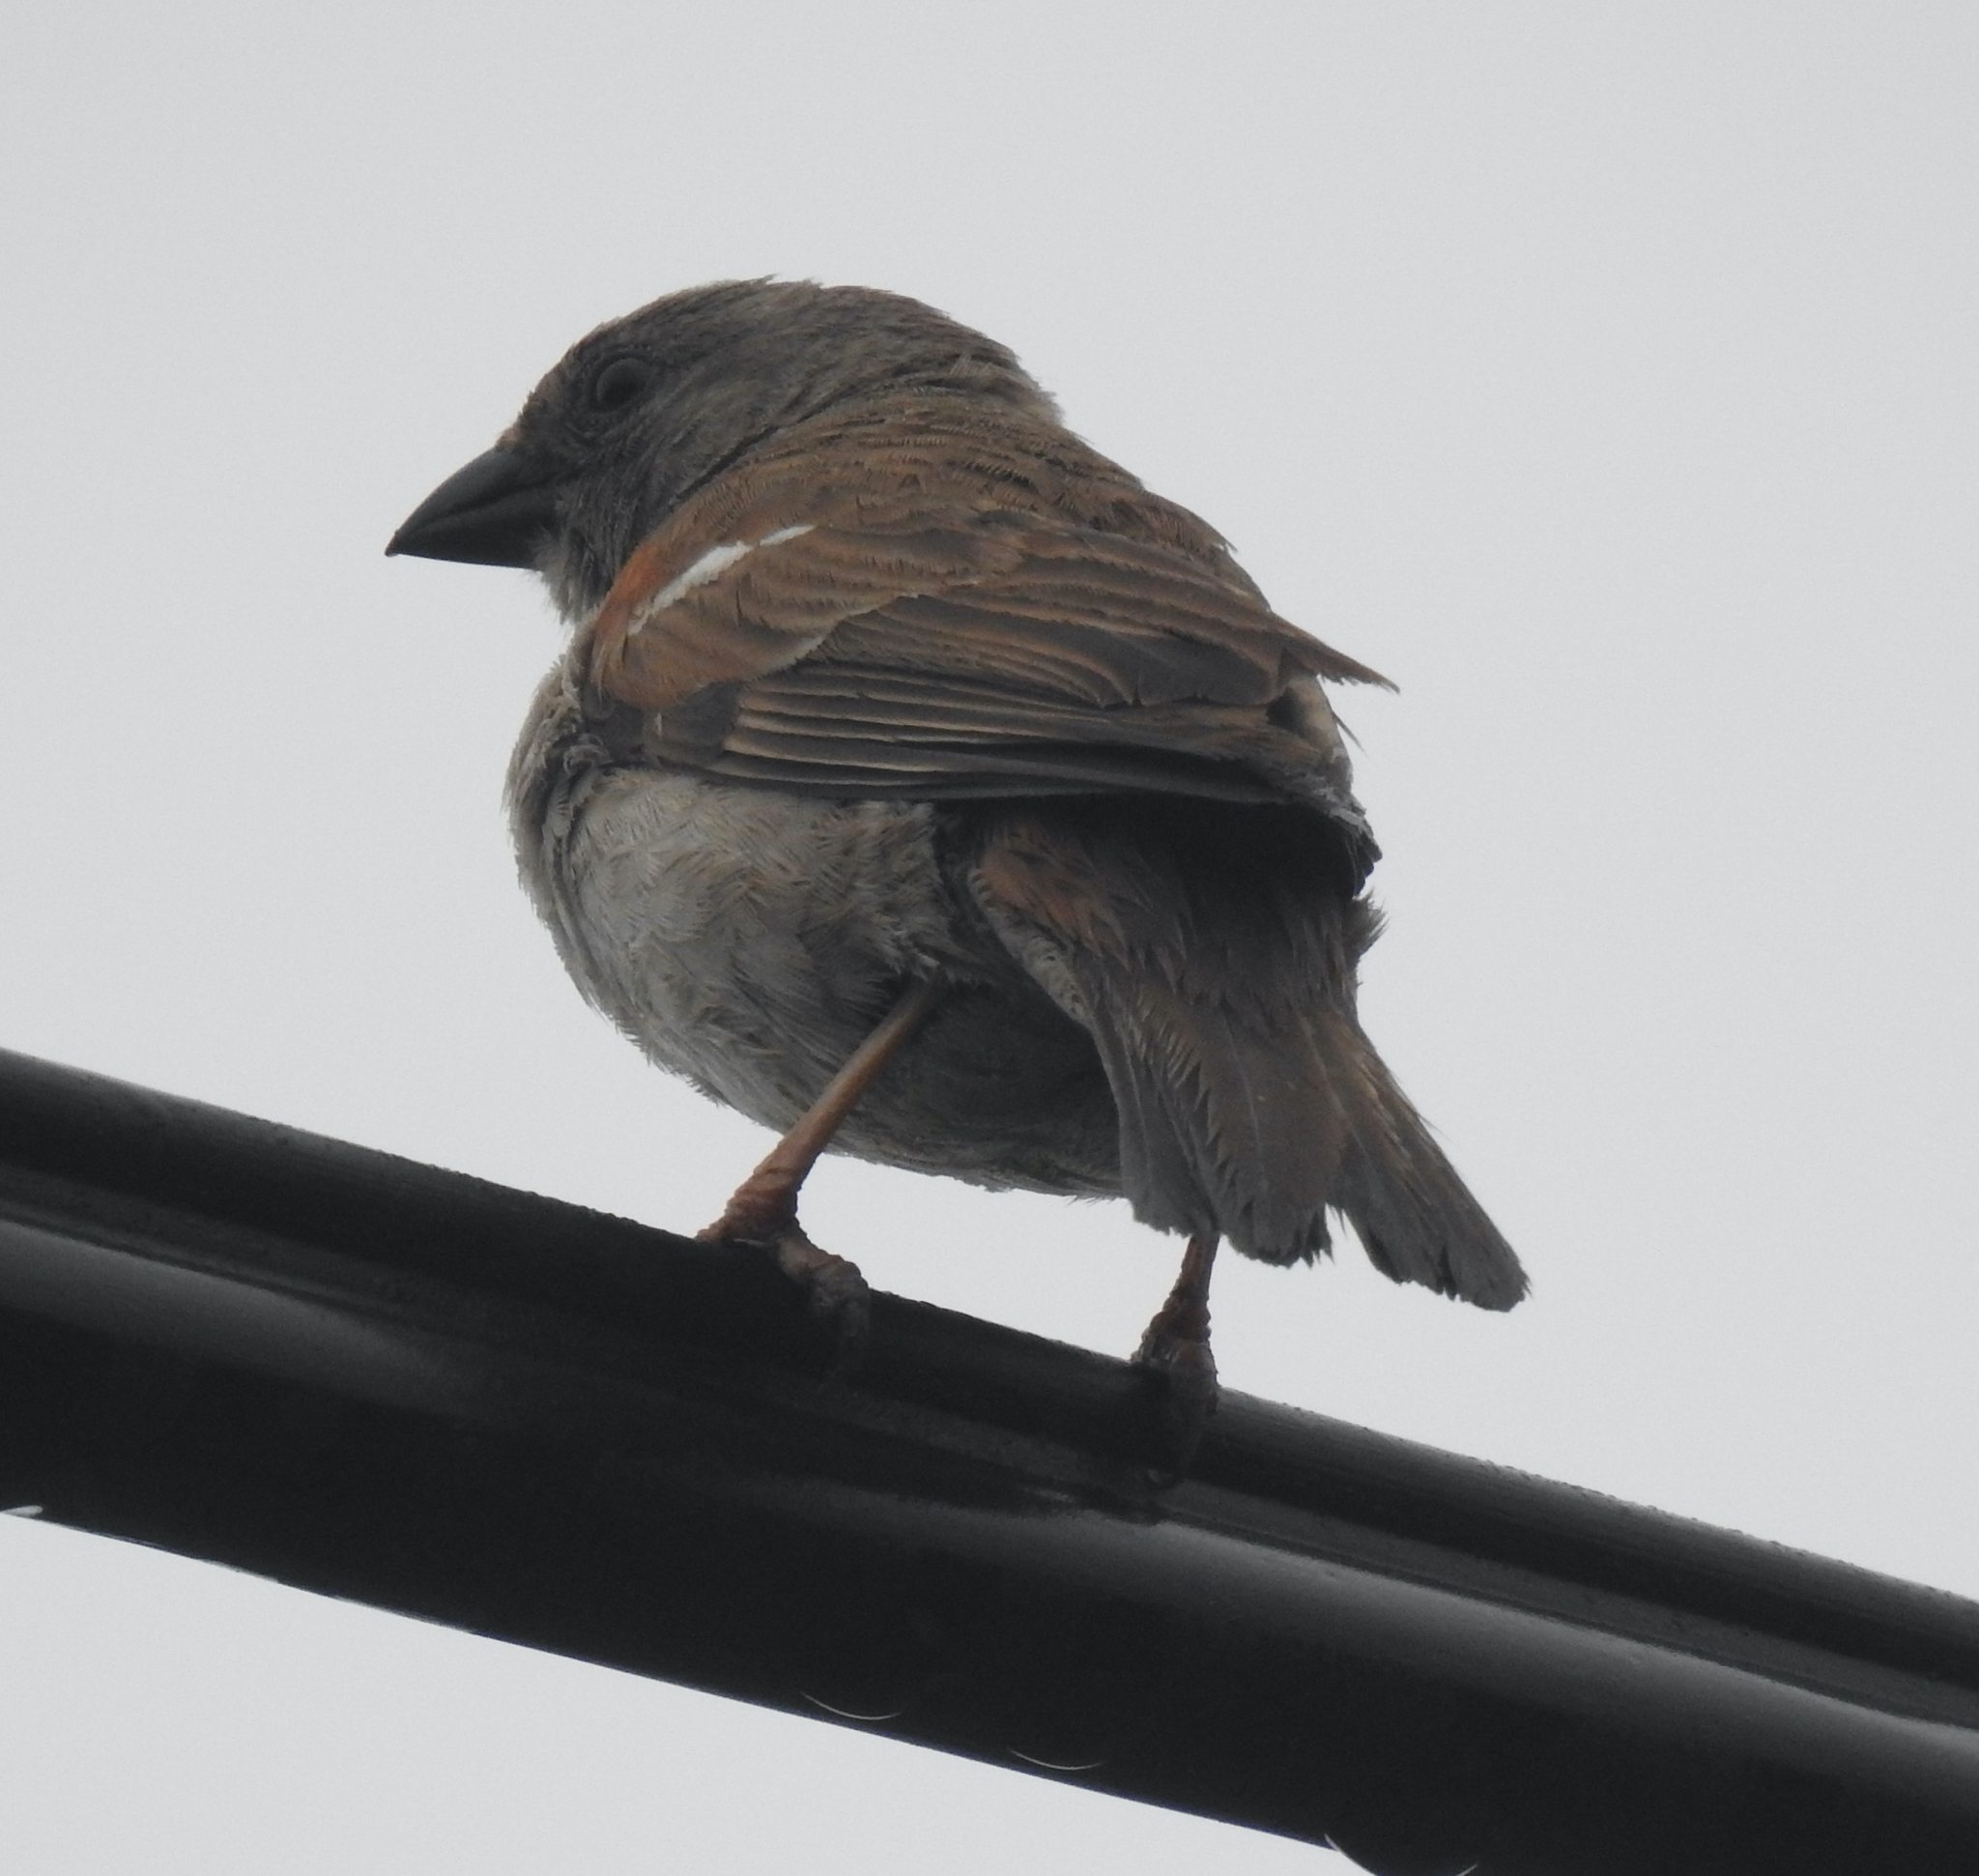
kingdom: Animalia
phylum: Chordata
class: Aves
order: Passeriformes
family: Passeridae
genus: Passer
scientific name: Passer diffusus
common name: Southern grey-headed sparrow
